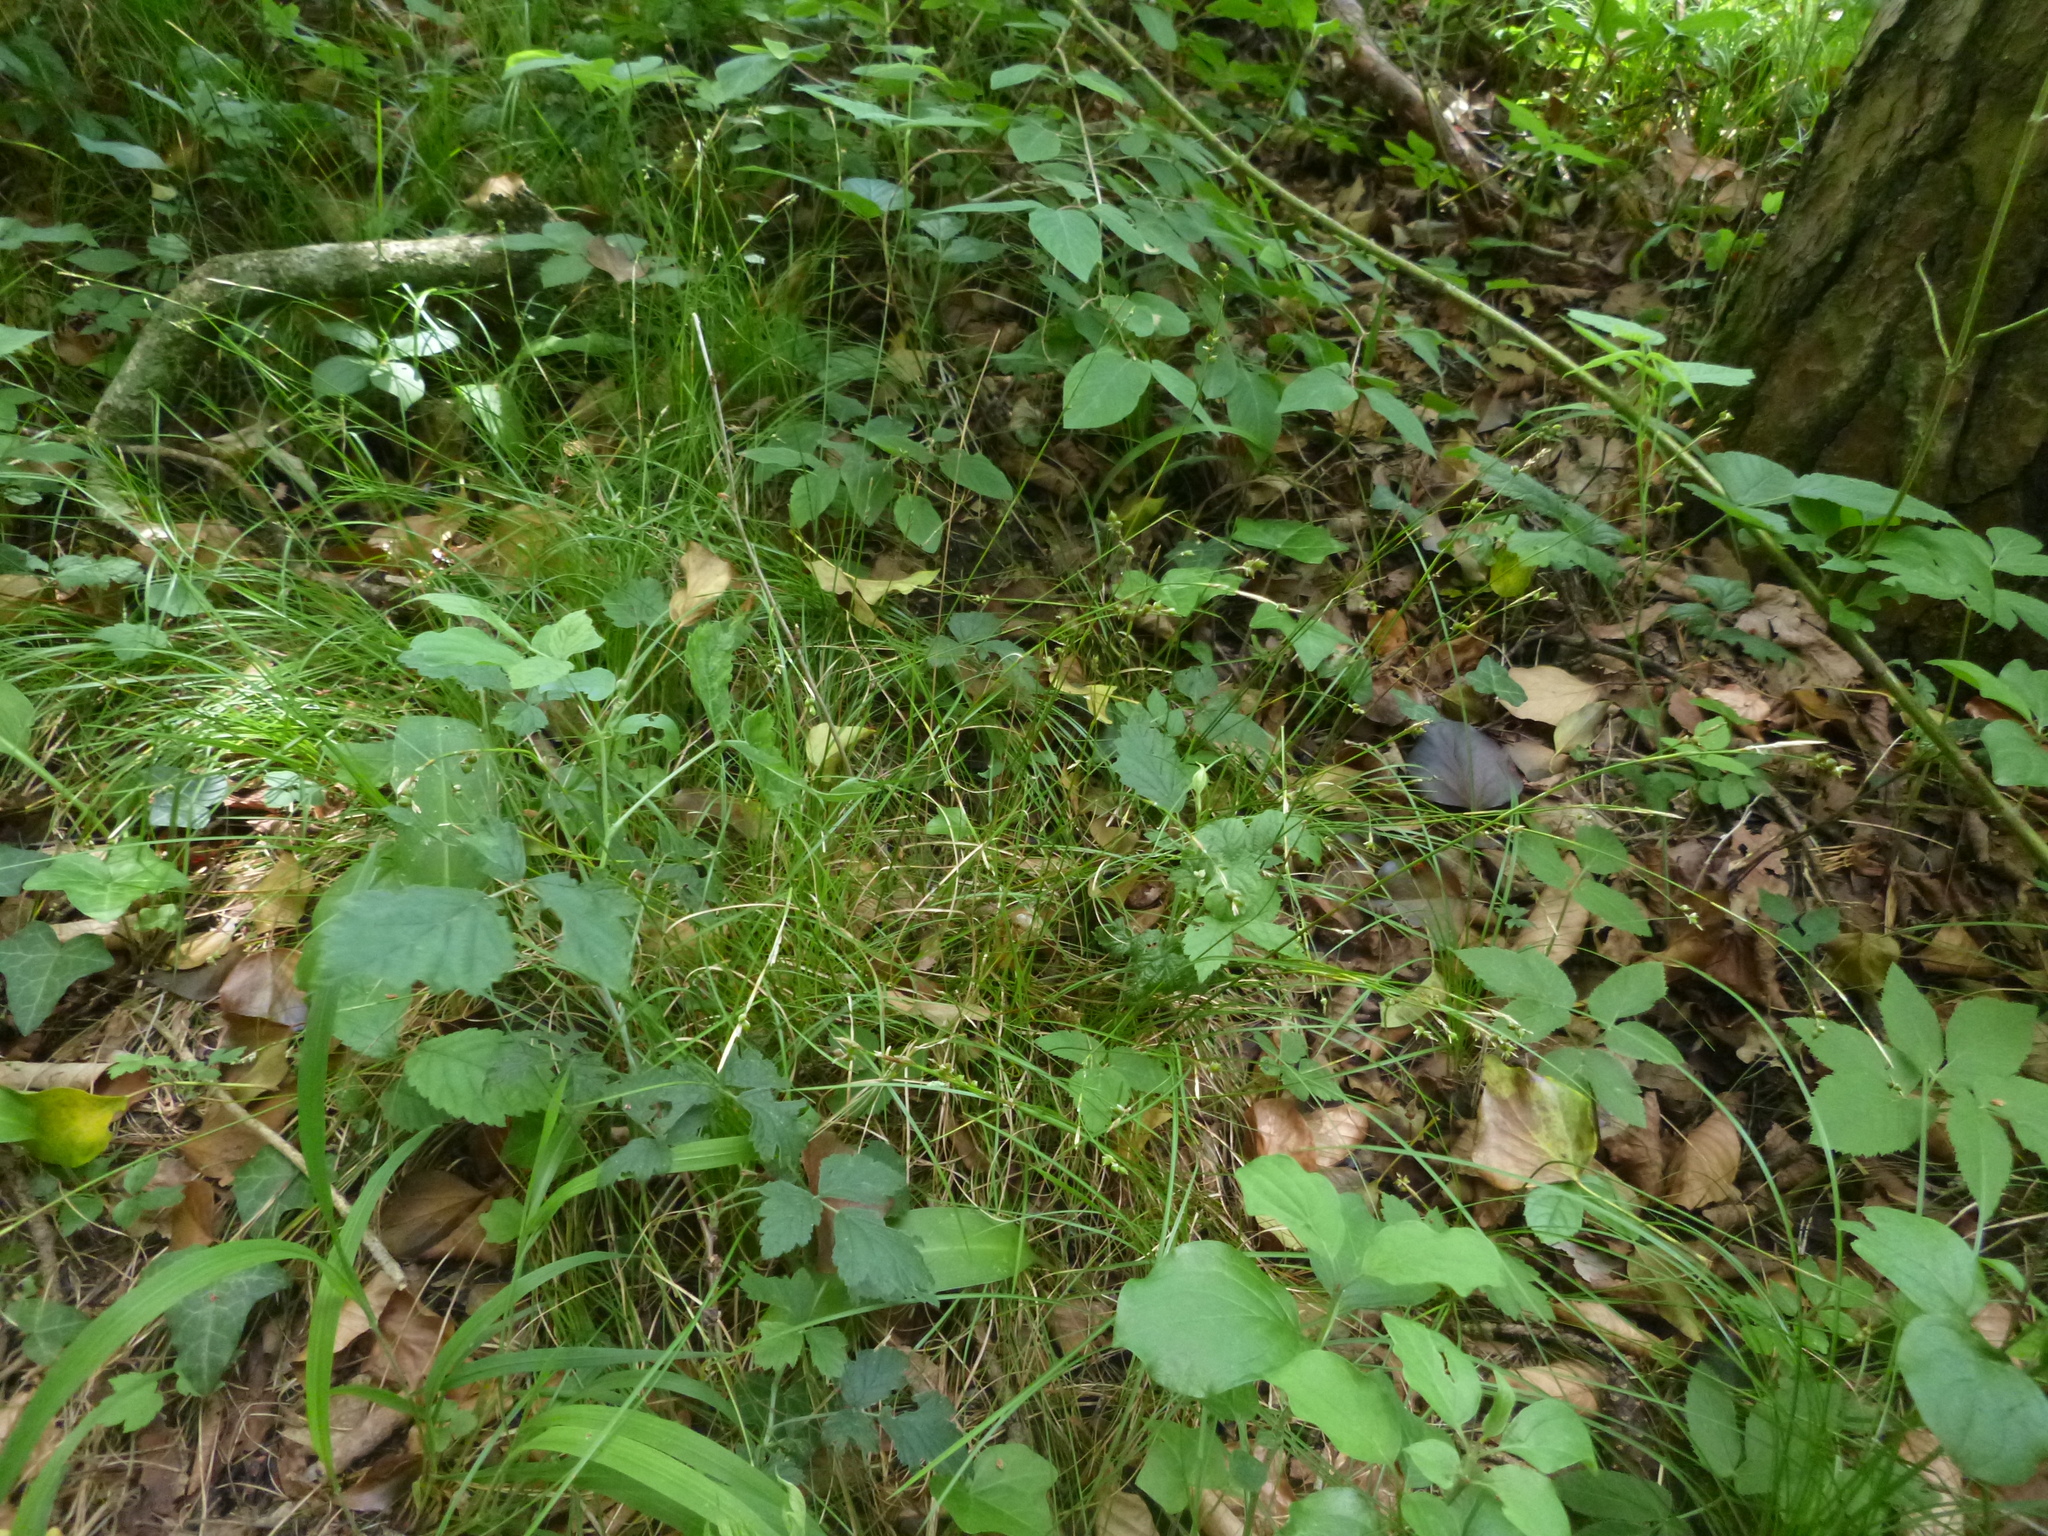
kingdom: Plantae
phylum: Tracheophyta
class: Liliopsida
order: Poales
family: Cyperaceae
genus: Carex
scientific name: Carex alba
